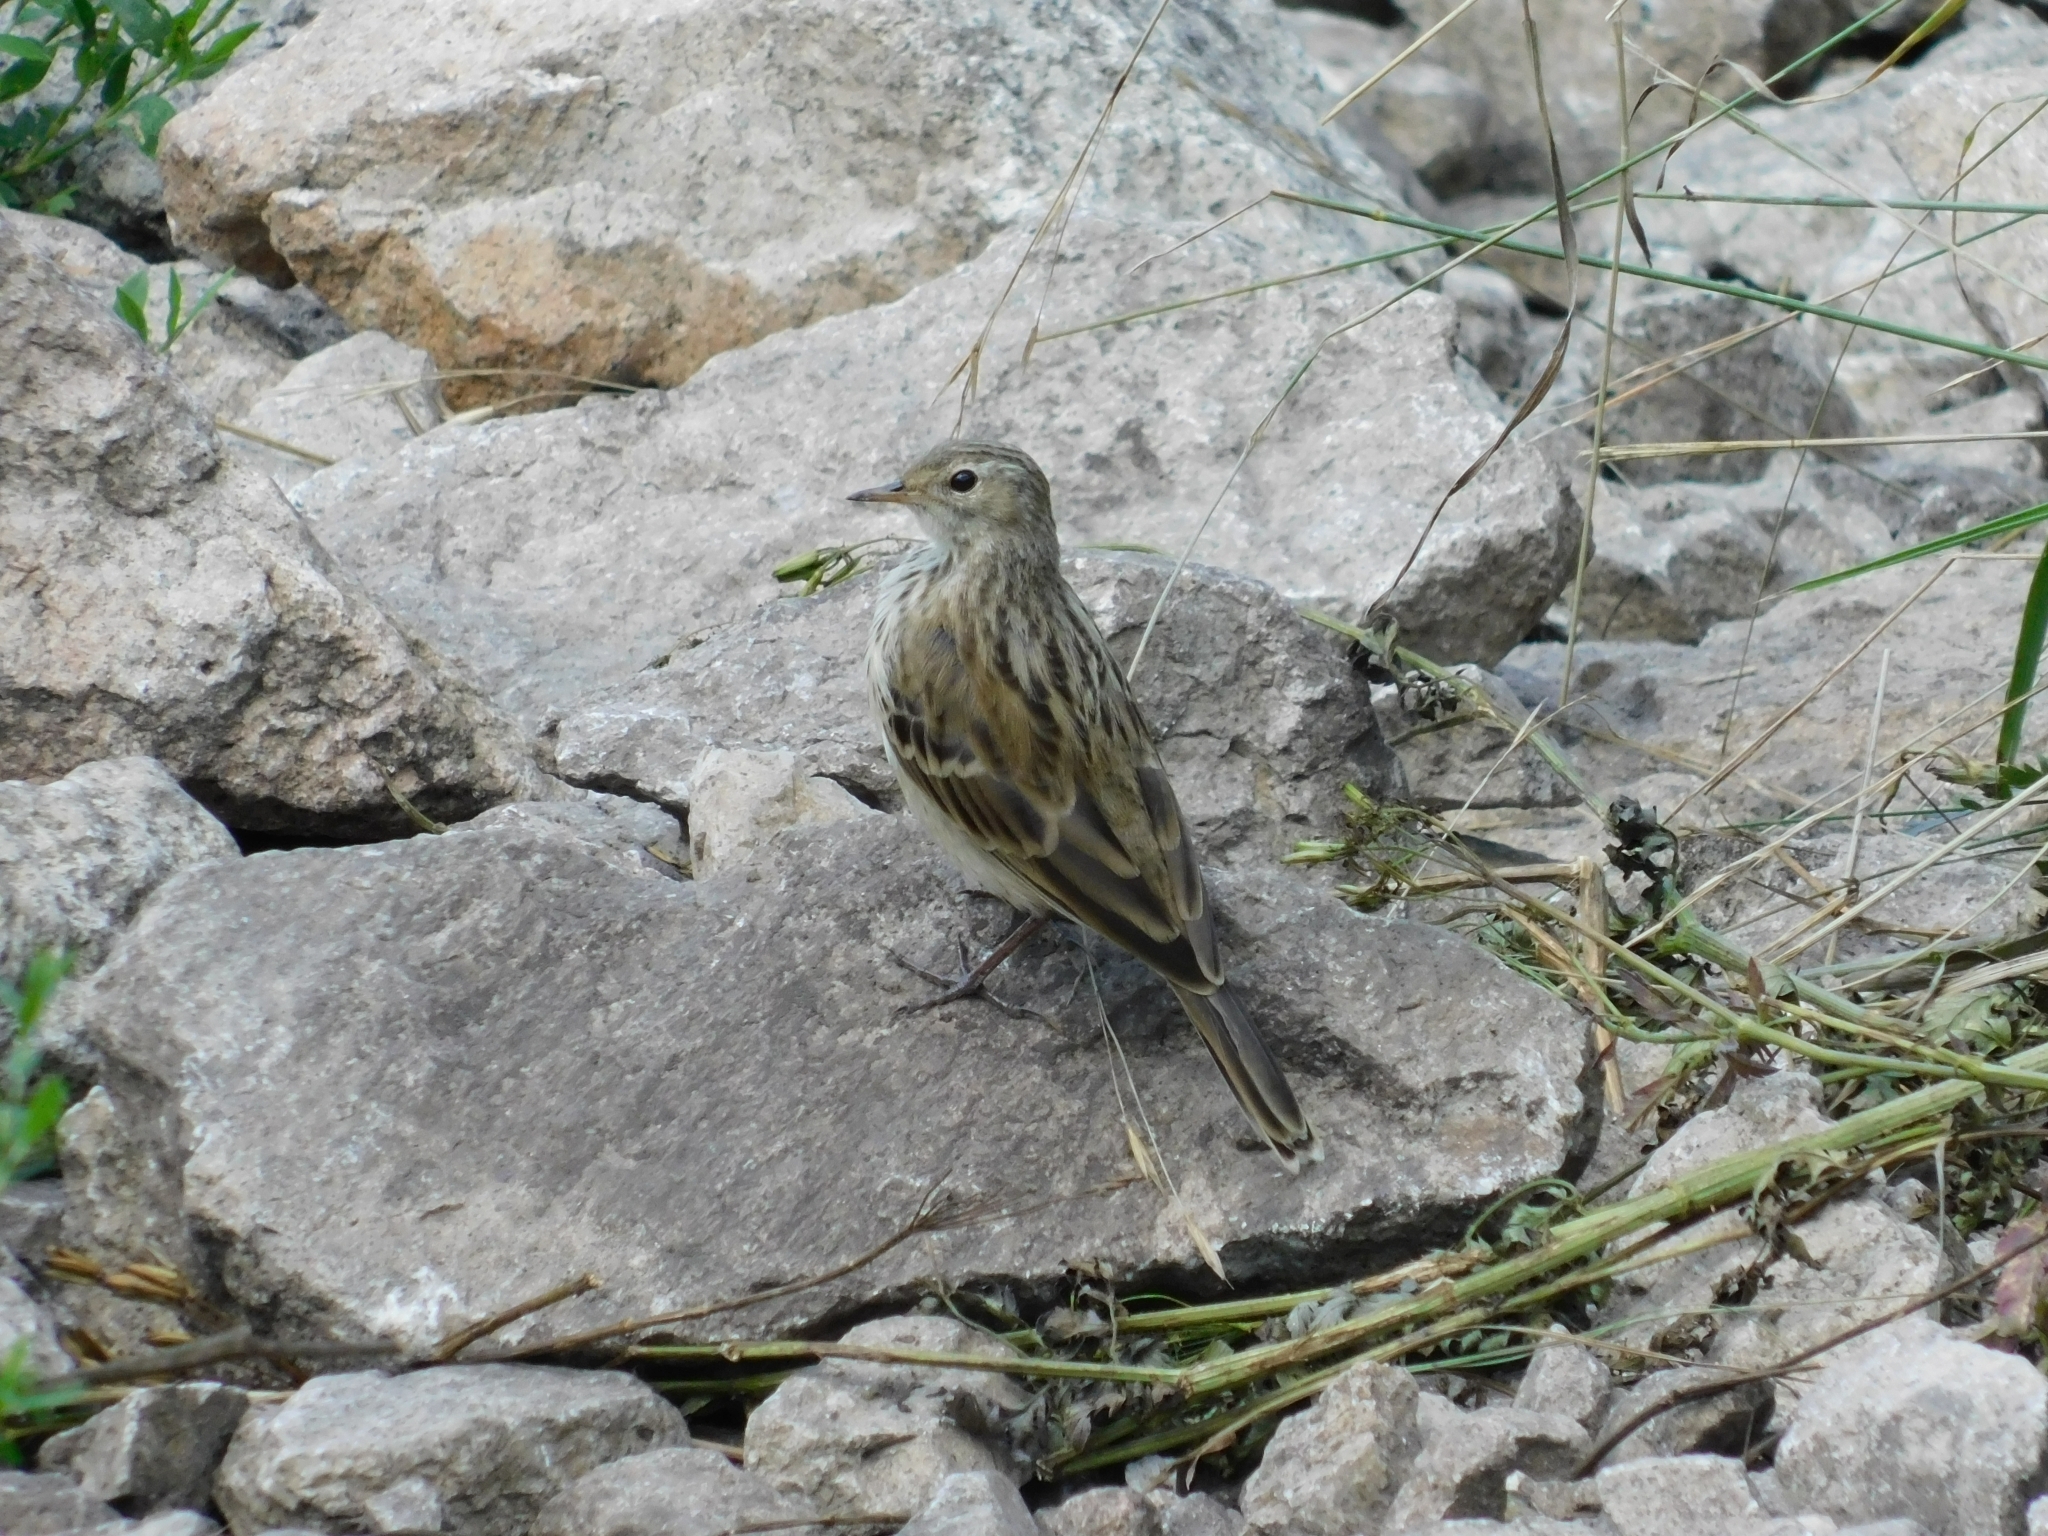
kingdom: Animalia
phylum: Chordata
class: Aves
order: Passeriformes
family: Motacillidae
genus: Anthus
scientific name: Anthus spinoletta
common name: Water pipit
